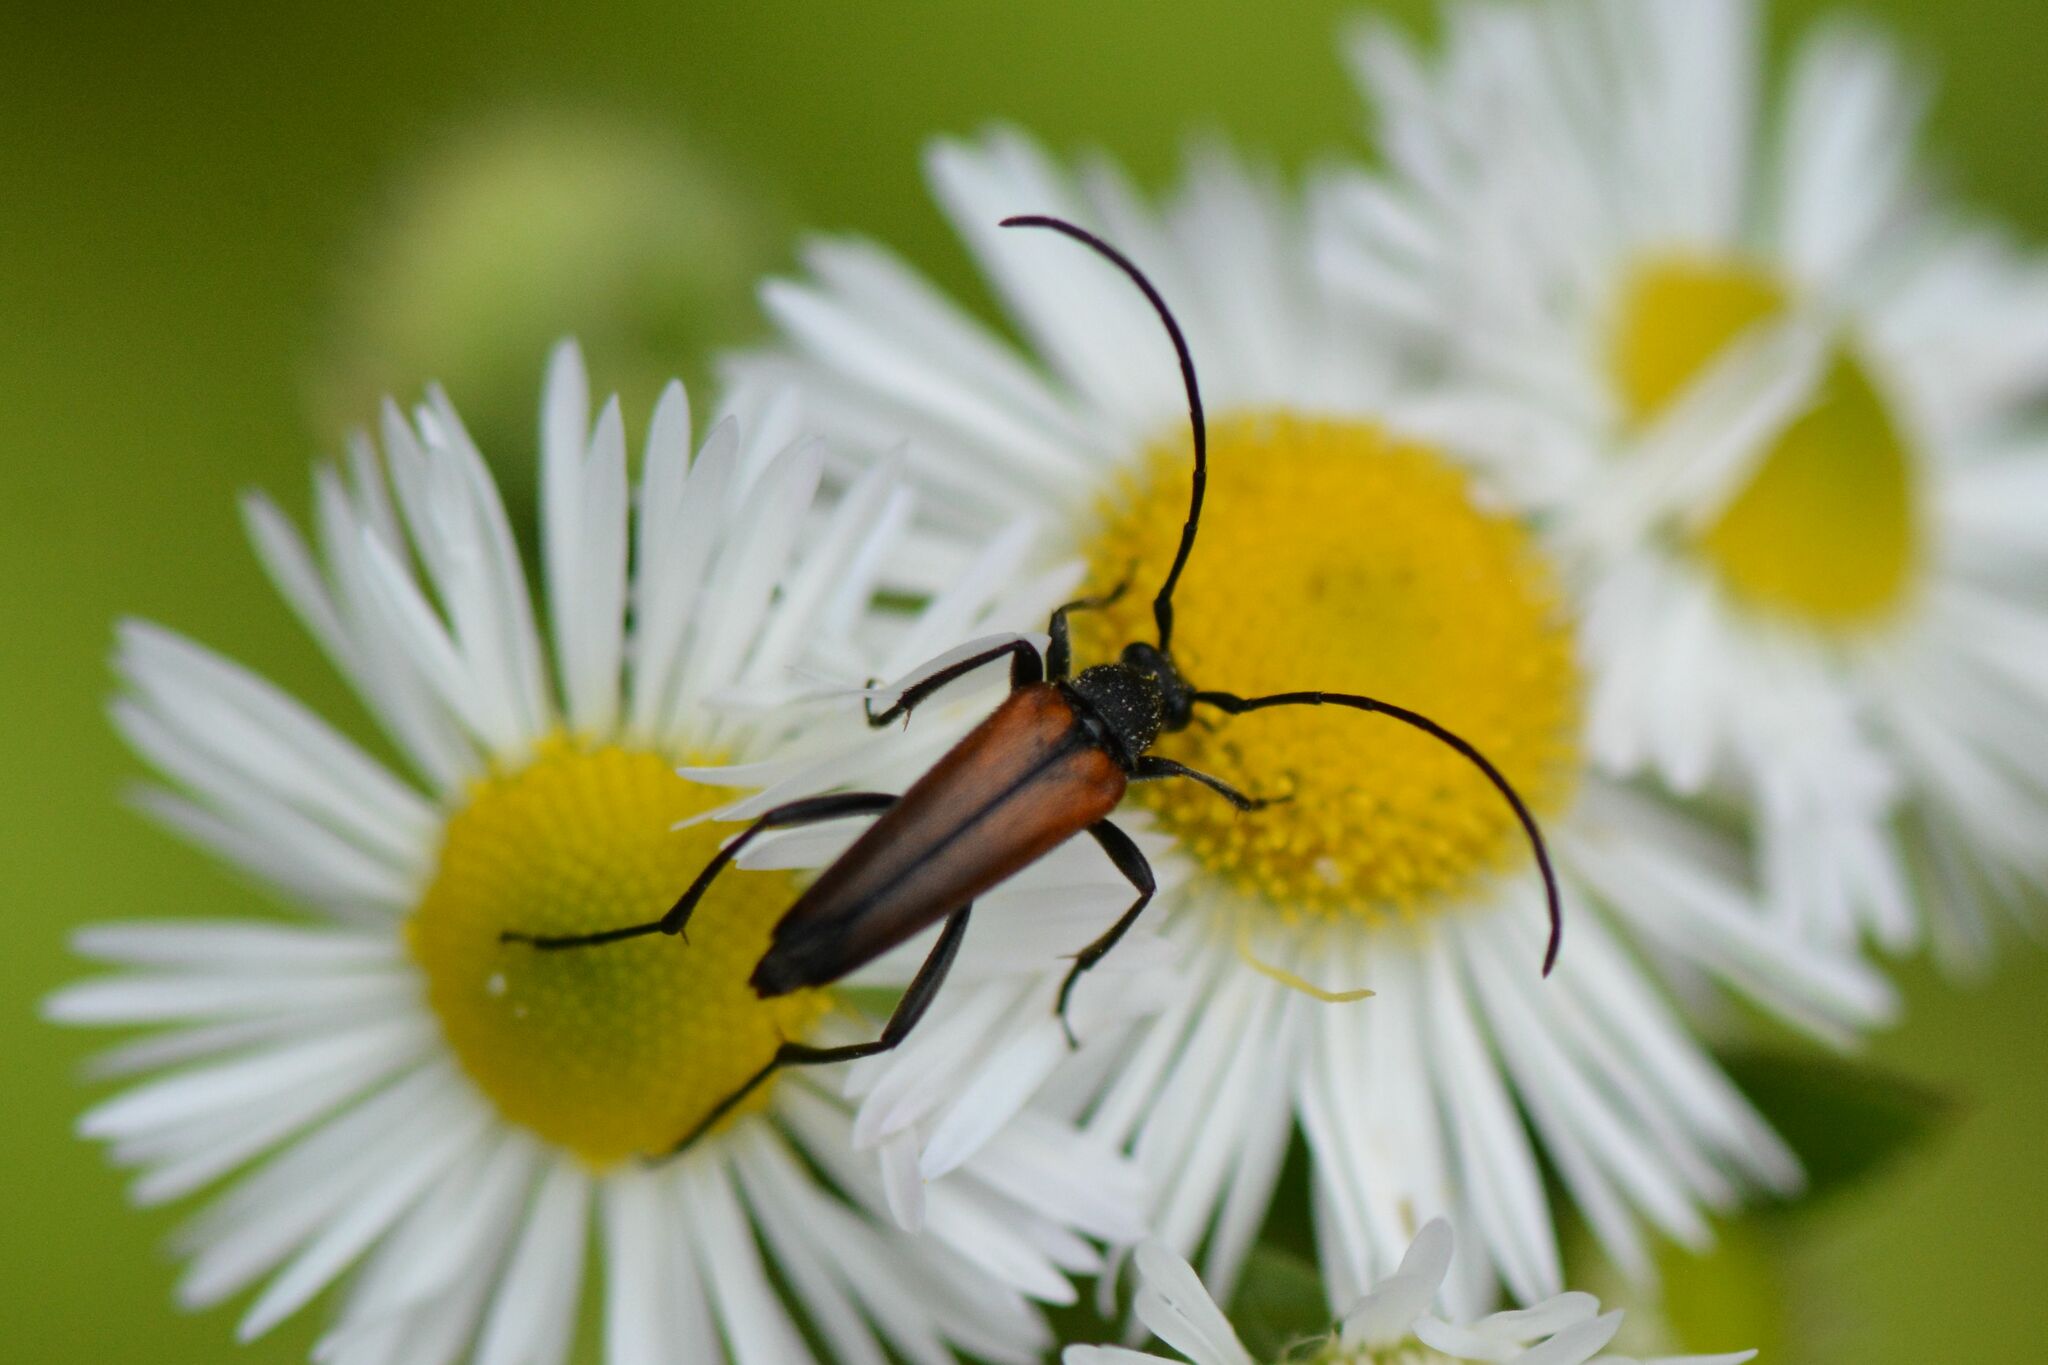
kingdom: Animalia
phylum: Arthropoda
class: Insecta
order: Coleoptera
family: Cerambycidae
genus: Stenurella
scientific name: Stenurella melanura
